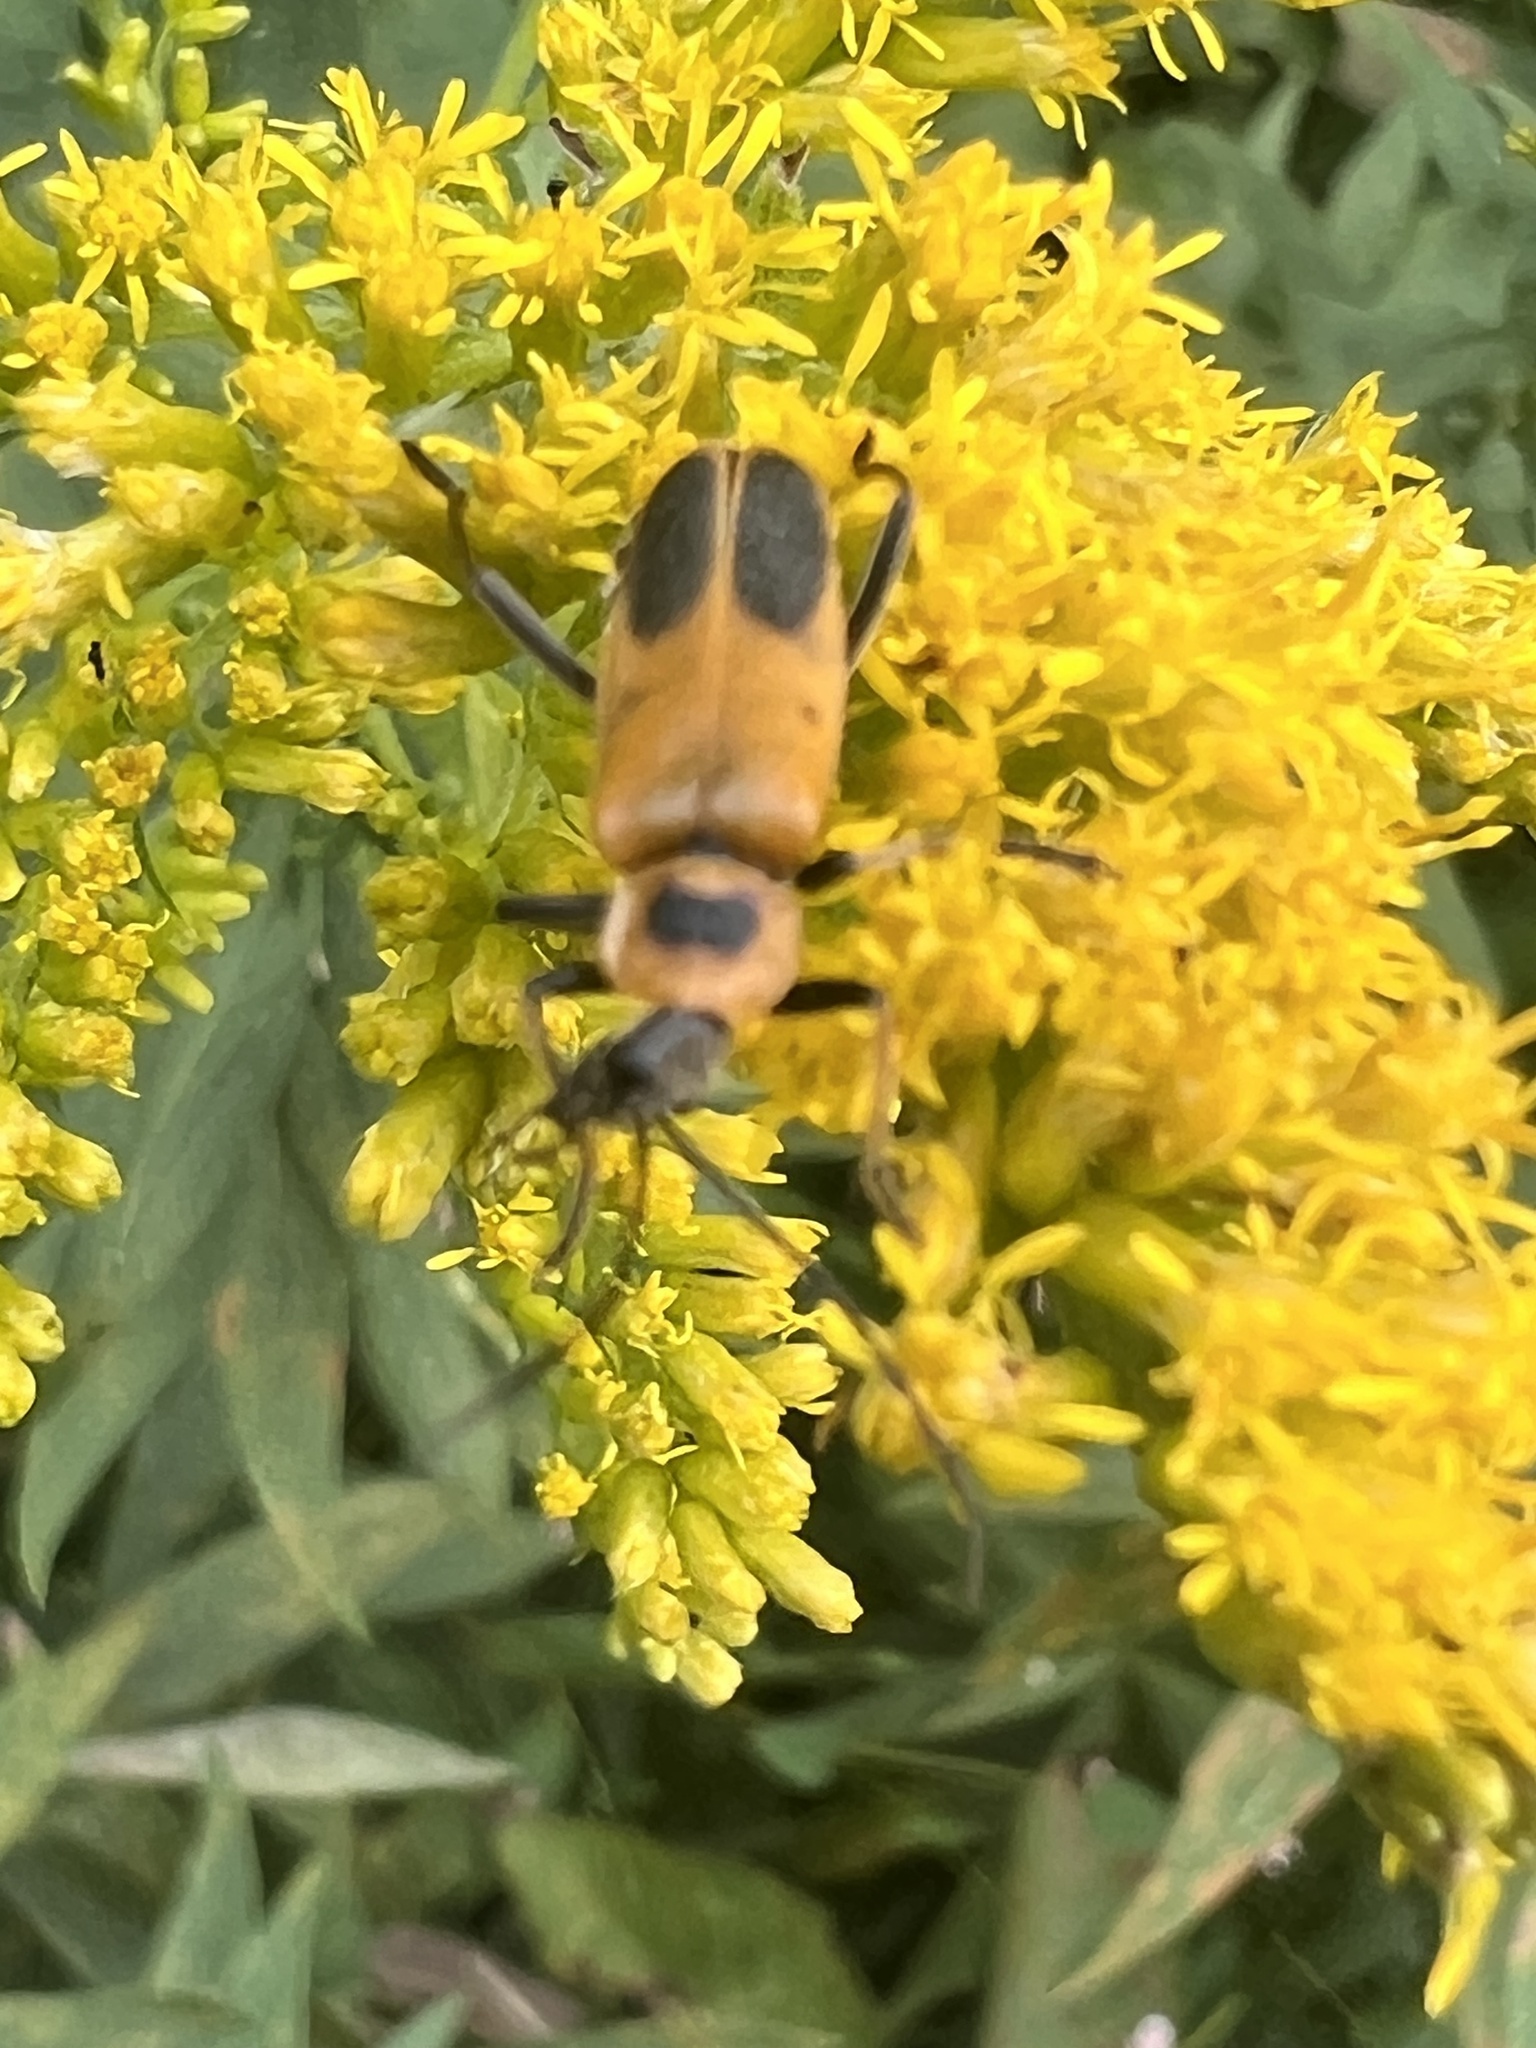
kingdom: Animalia
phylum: Arthropoda
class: Insecta
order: Coleoptera
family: Cantharidae
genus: Chauliognathus
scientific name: Chauliognathus pensylvanicus
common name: Goldenrod soldier beetle
